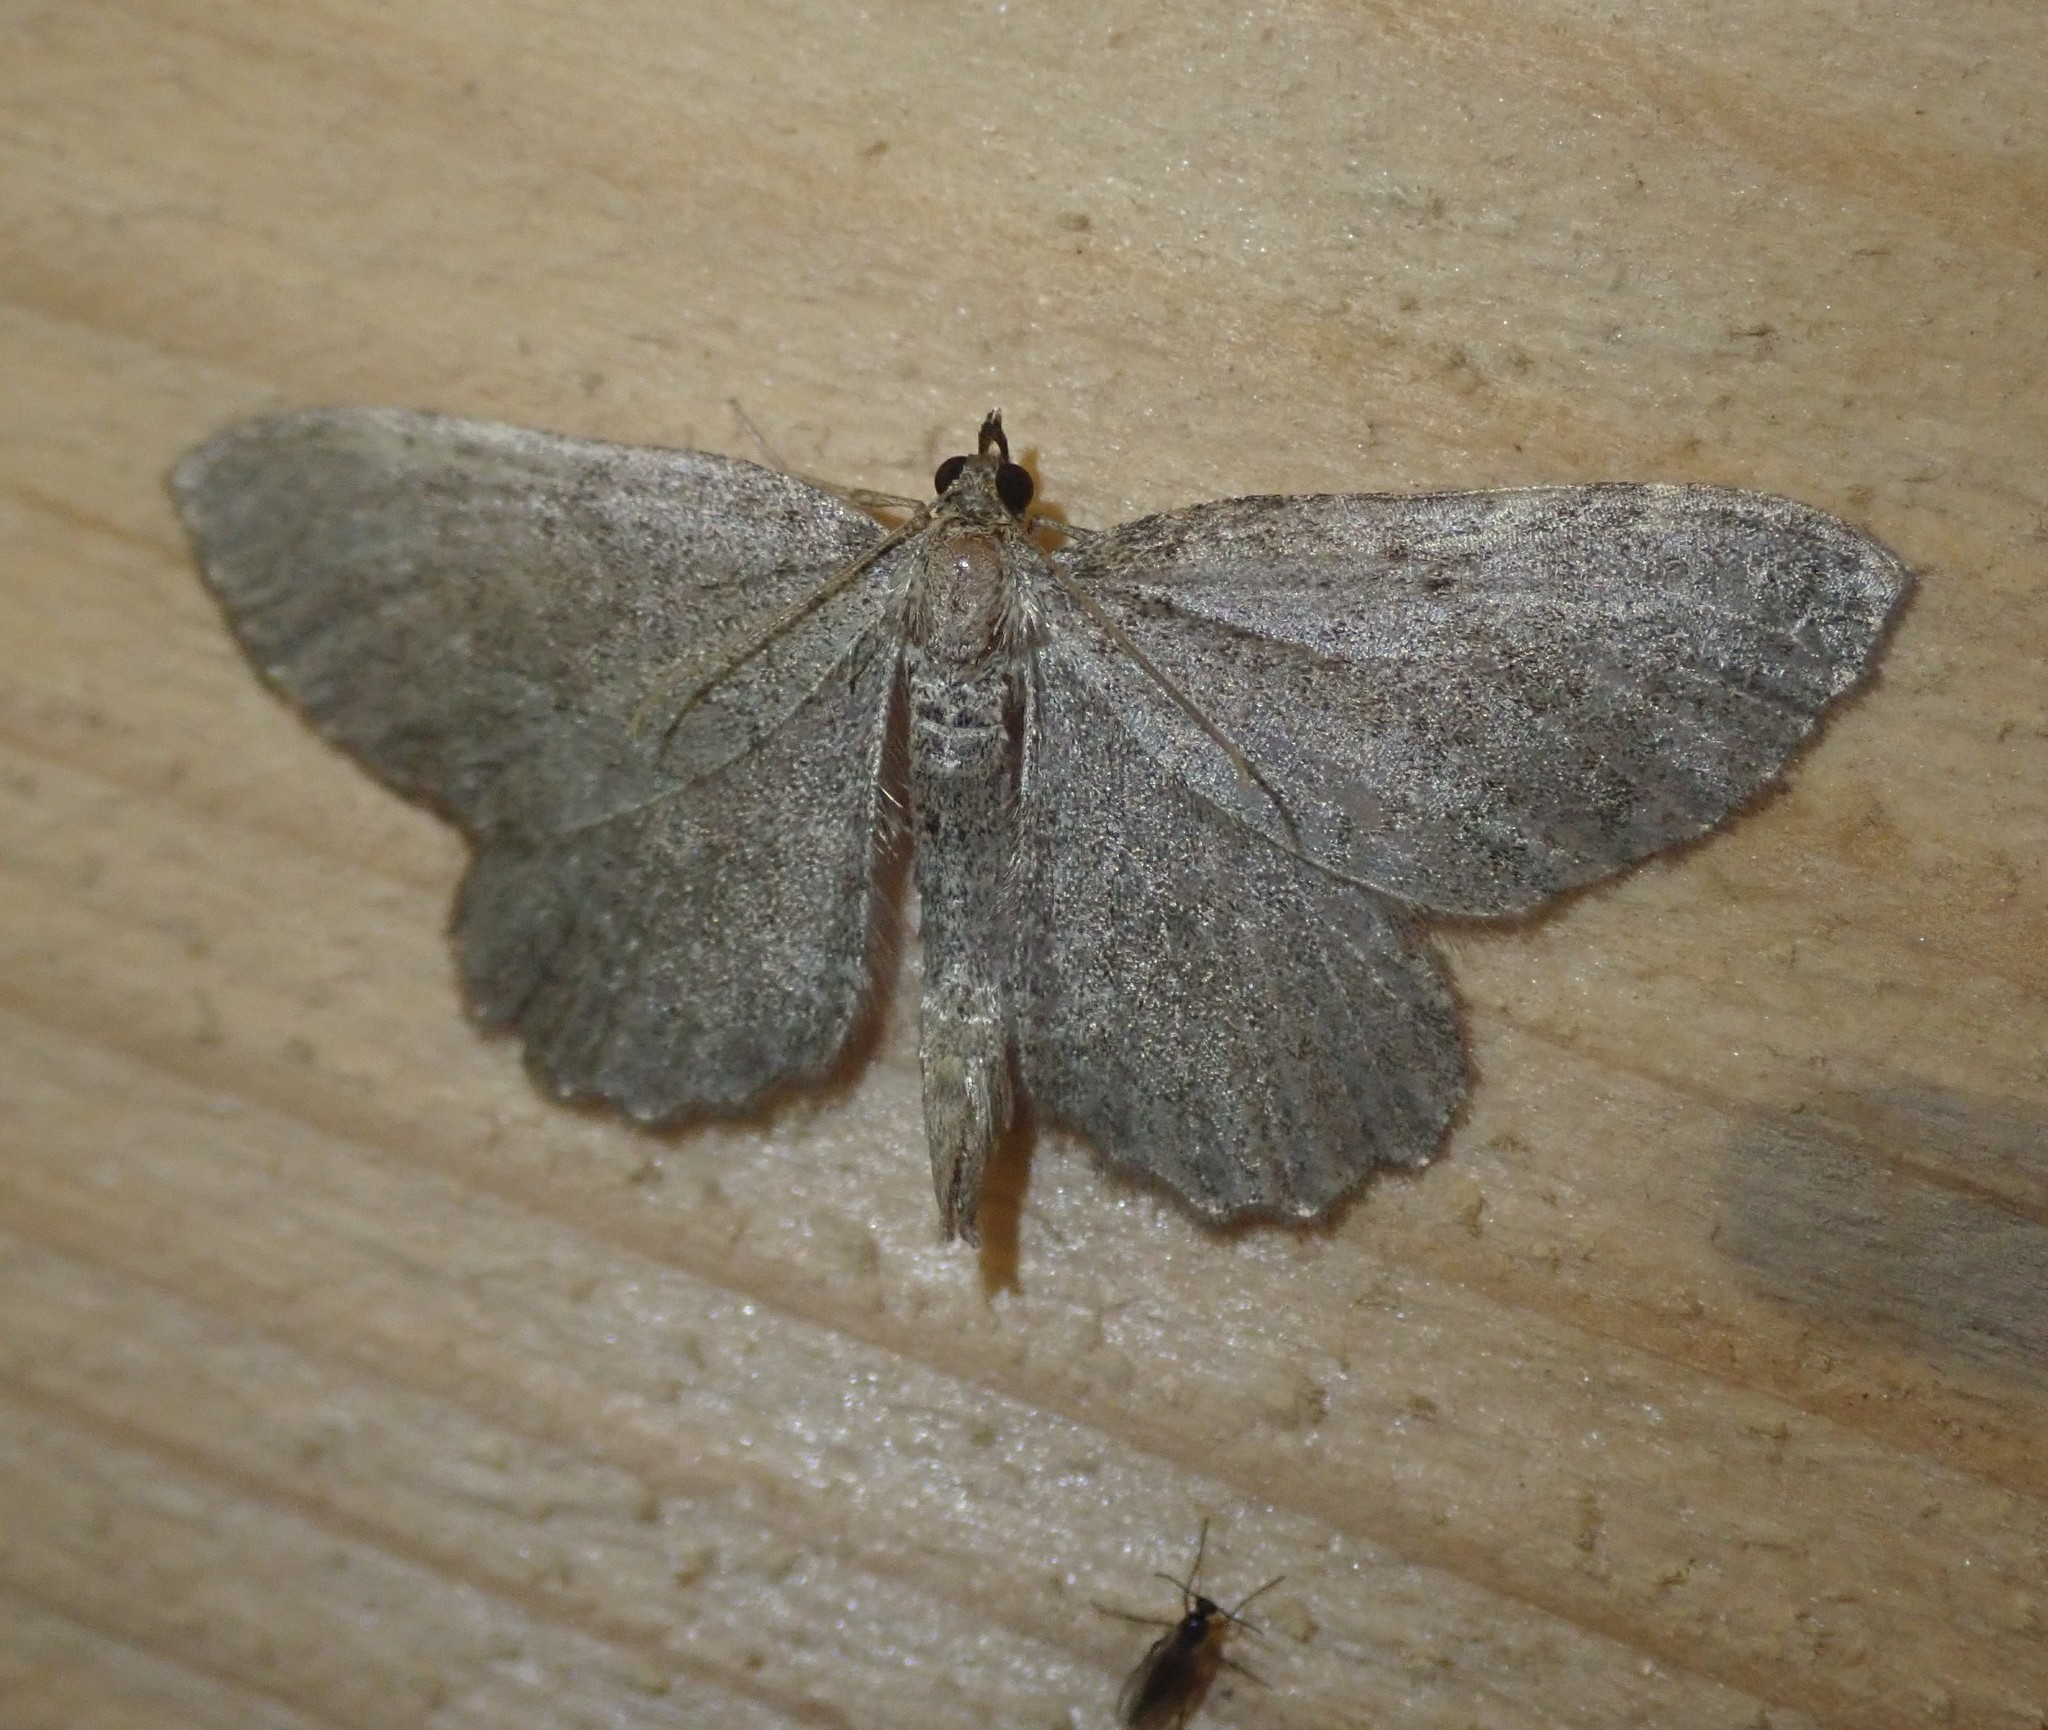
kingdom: Animalia
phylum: Arthropoda
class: Insecta
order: Lepidoptera
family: Geometridae
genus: Philereme
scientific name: Philereme vetulata
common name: Brown scallop
